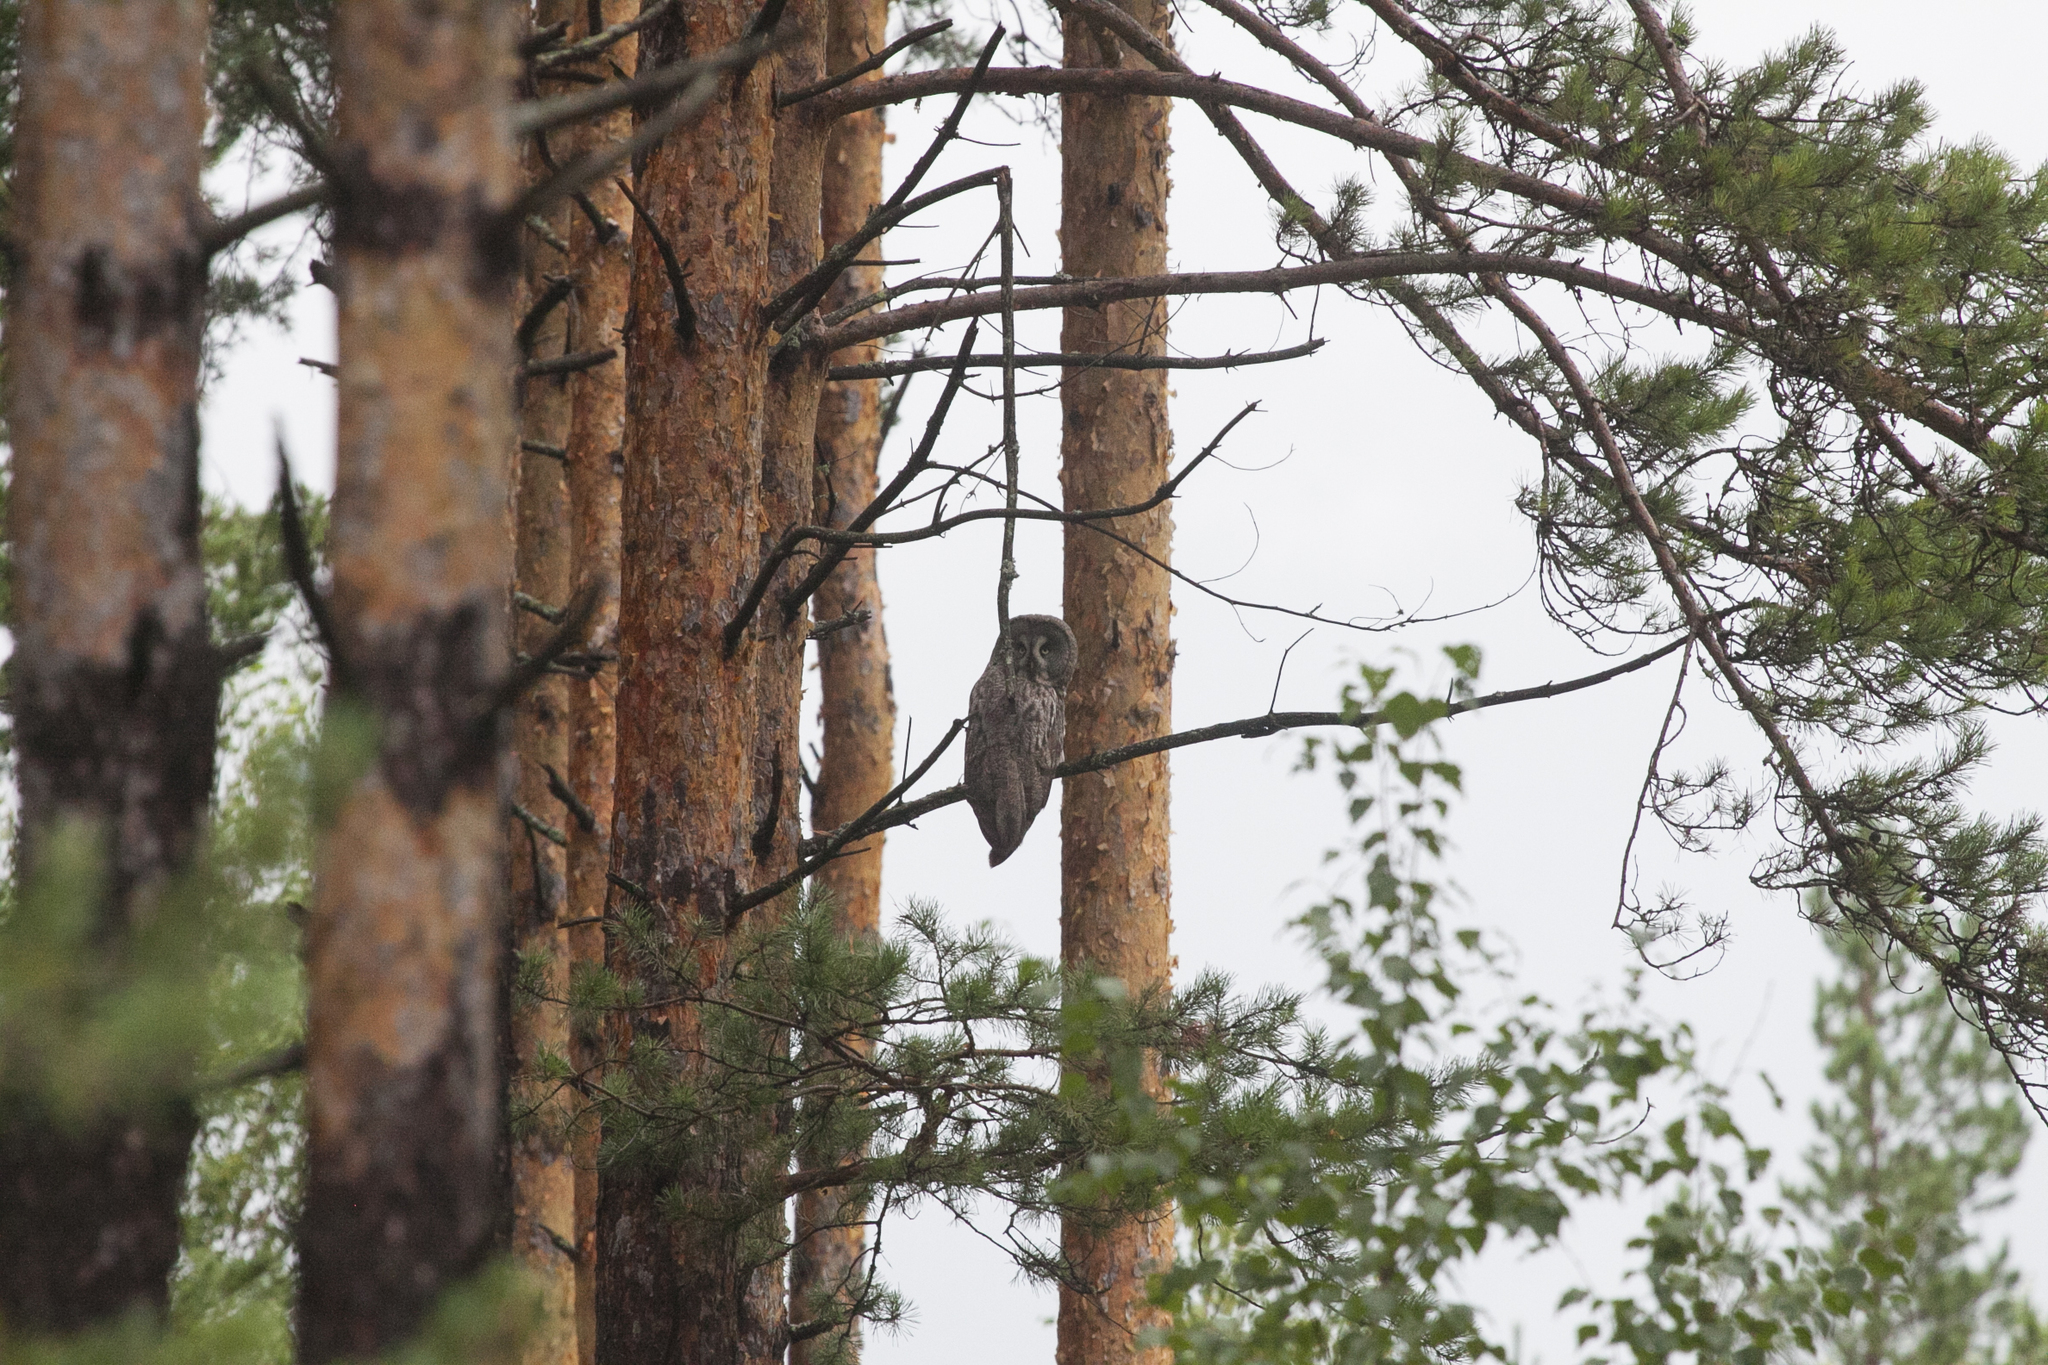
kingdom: Animalia
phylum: Chordata
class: Aves
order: Strigiformes
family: Strigidae
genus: Strix
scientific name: Strix nebulosa
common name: Great grey owl
